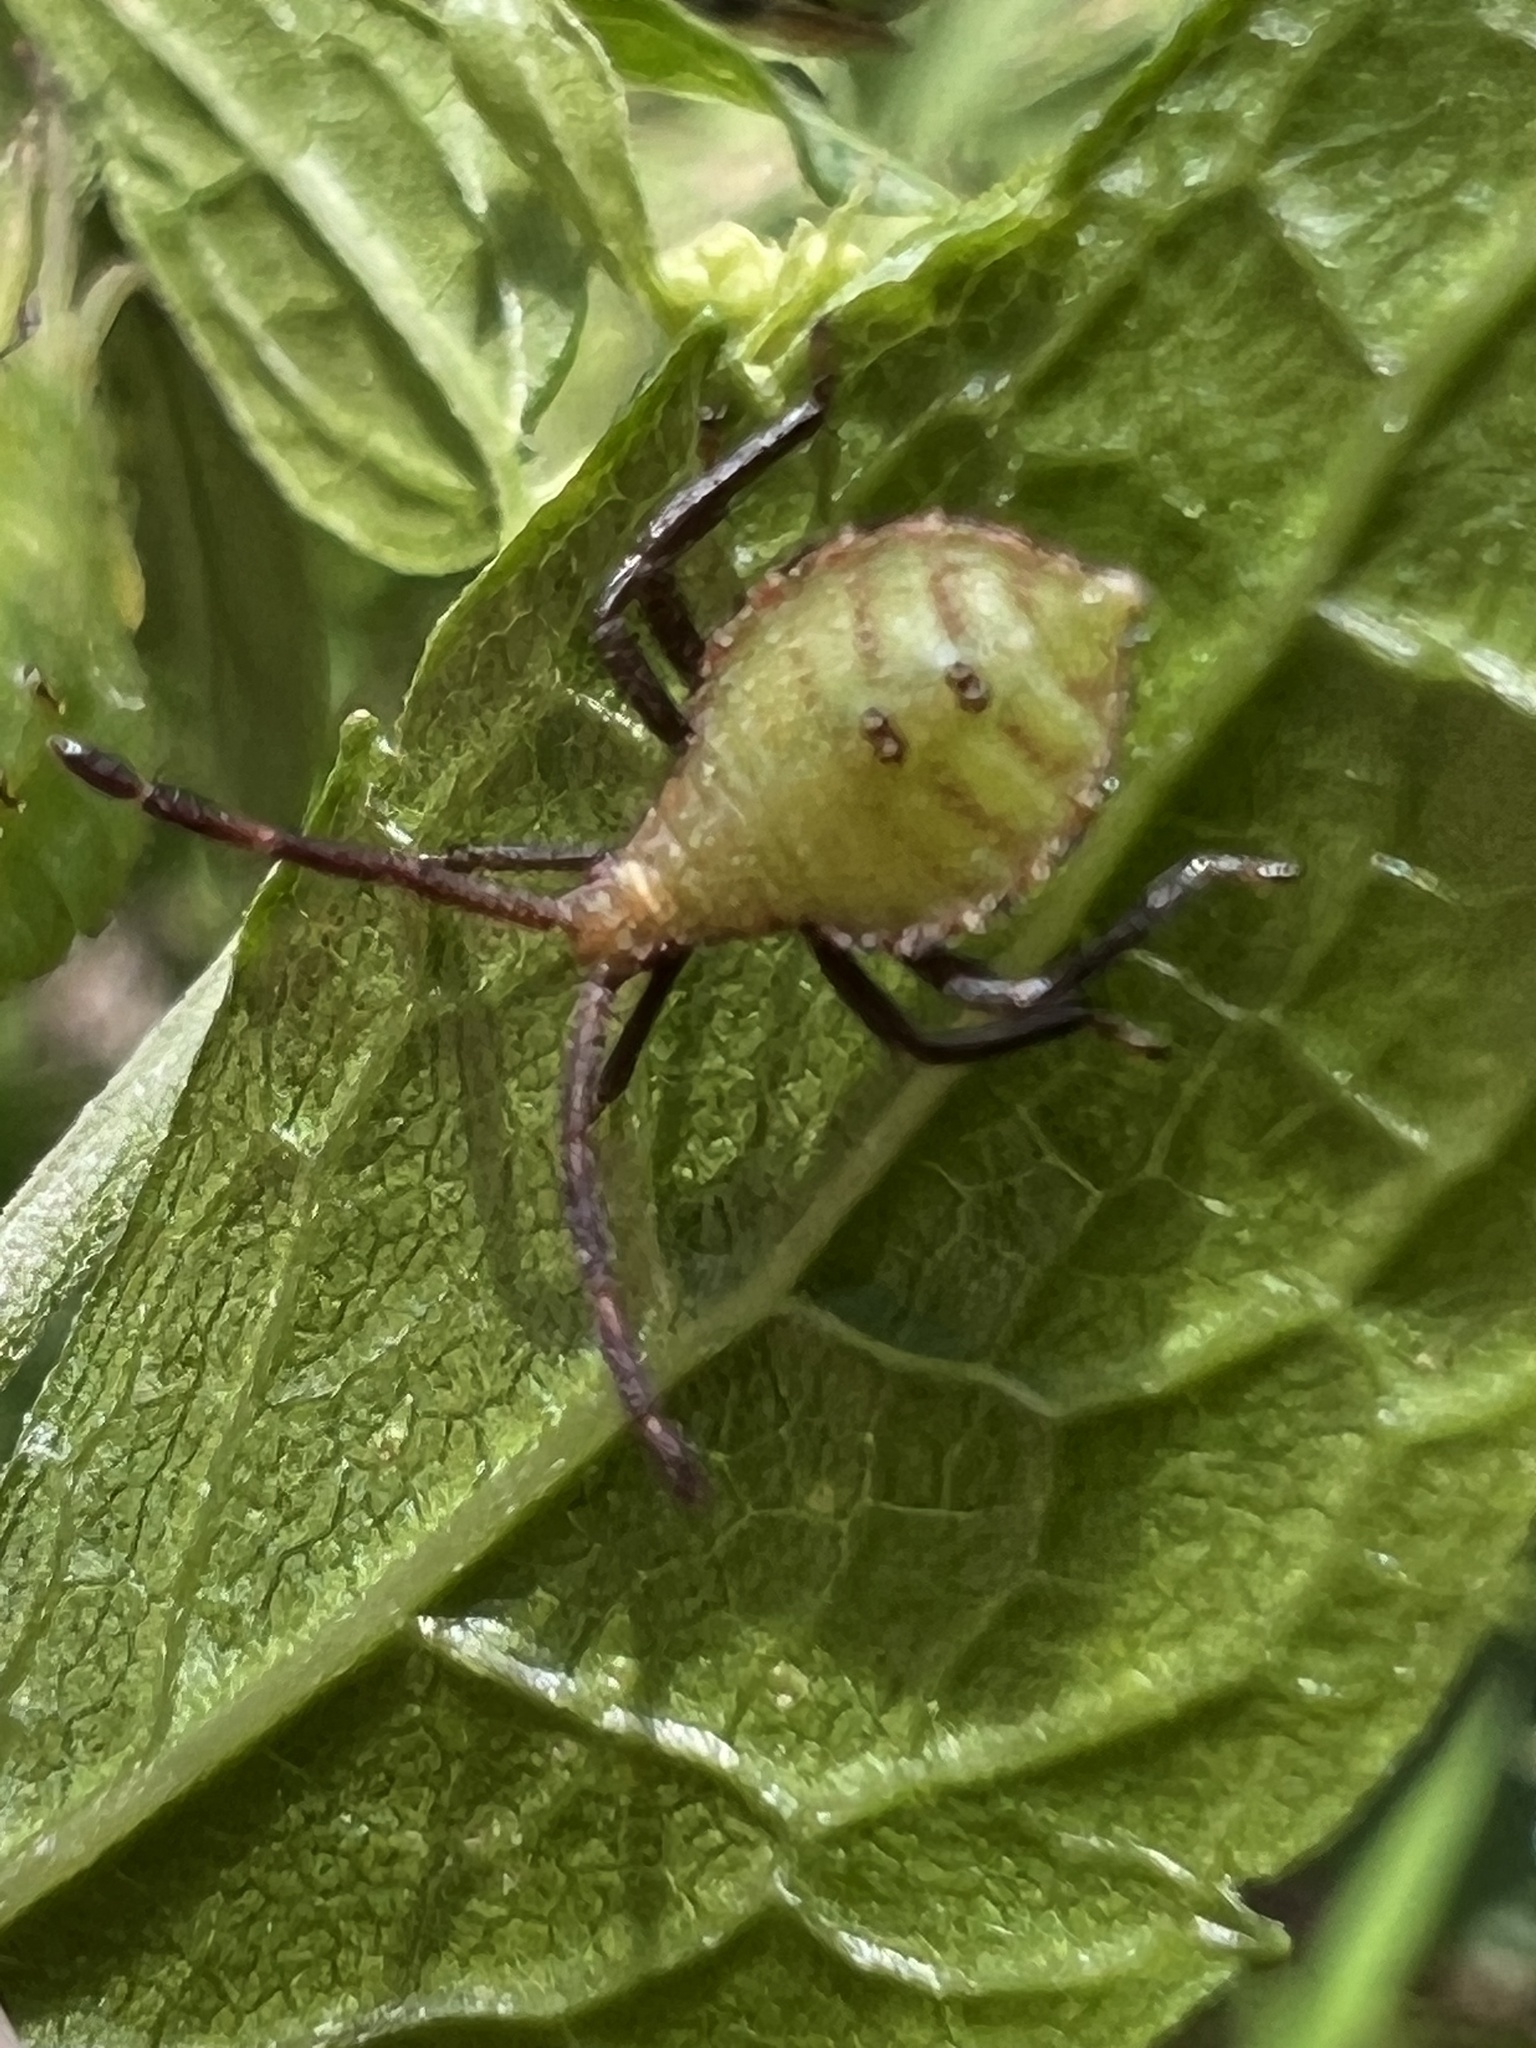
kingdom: Animalia
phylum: Arthropoda
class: Insecta
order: Hemiptera
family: Coreidae
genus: Piezogaster
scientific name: Piezogaster calcarator
